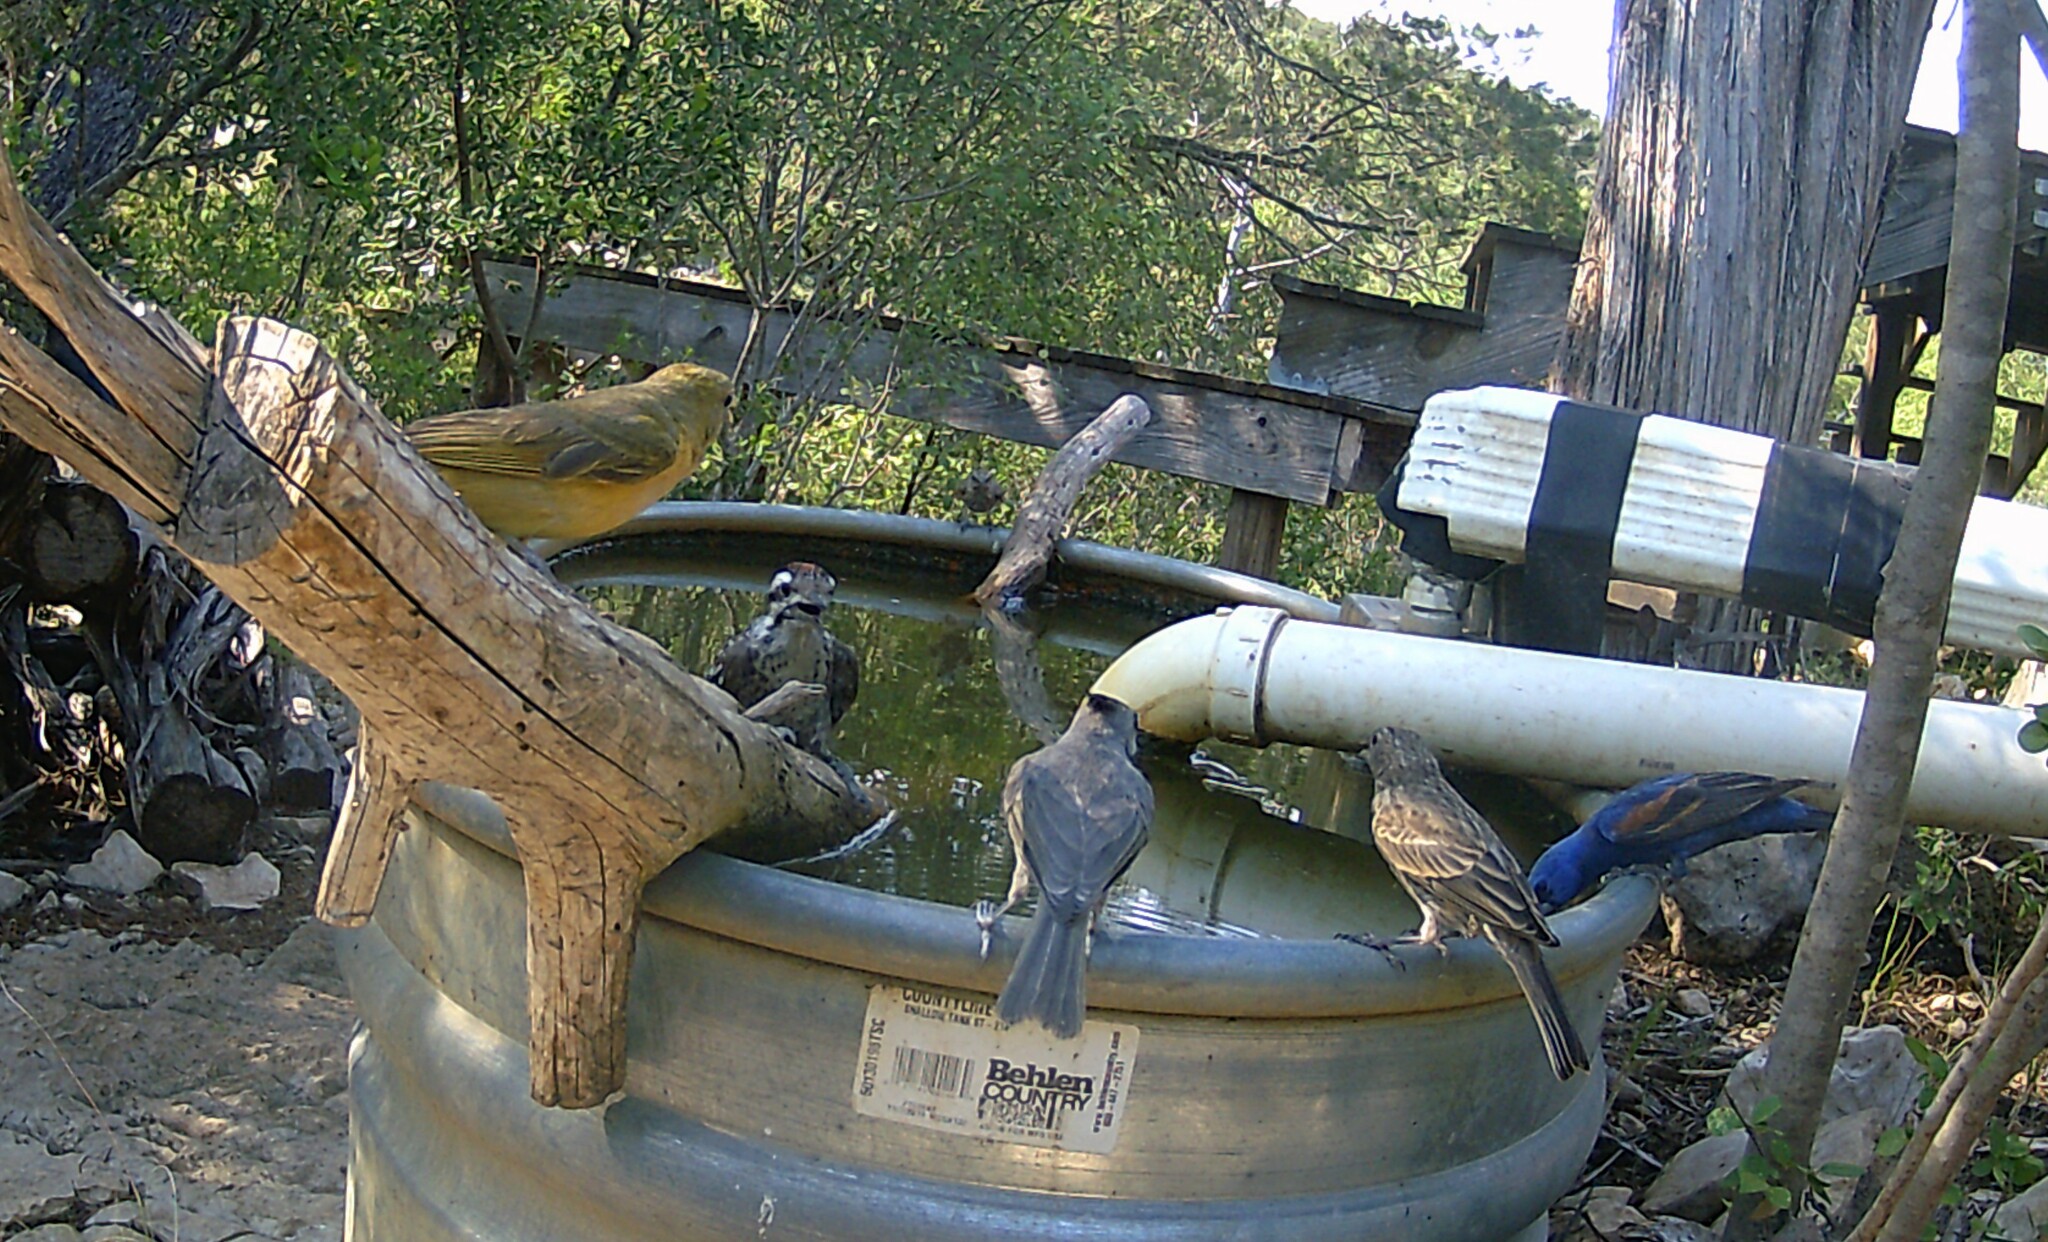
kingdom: Animalia
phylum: Chordata
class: Aves
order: Passeriformes
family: Cardinalidae
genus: Passerina
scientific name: Passerina caerulea
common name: Blue grosbeak
